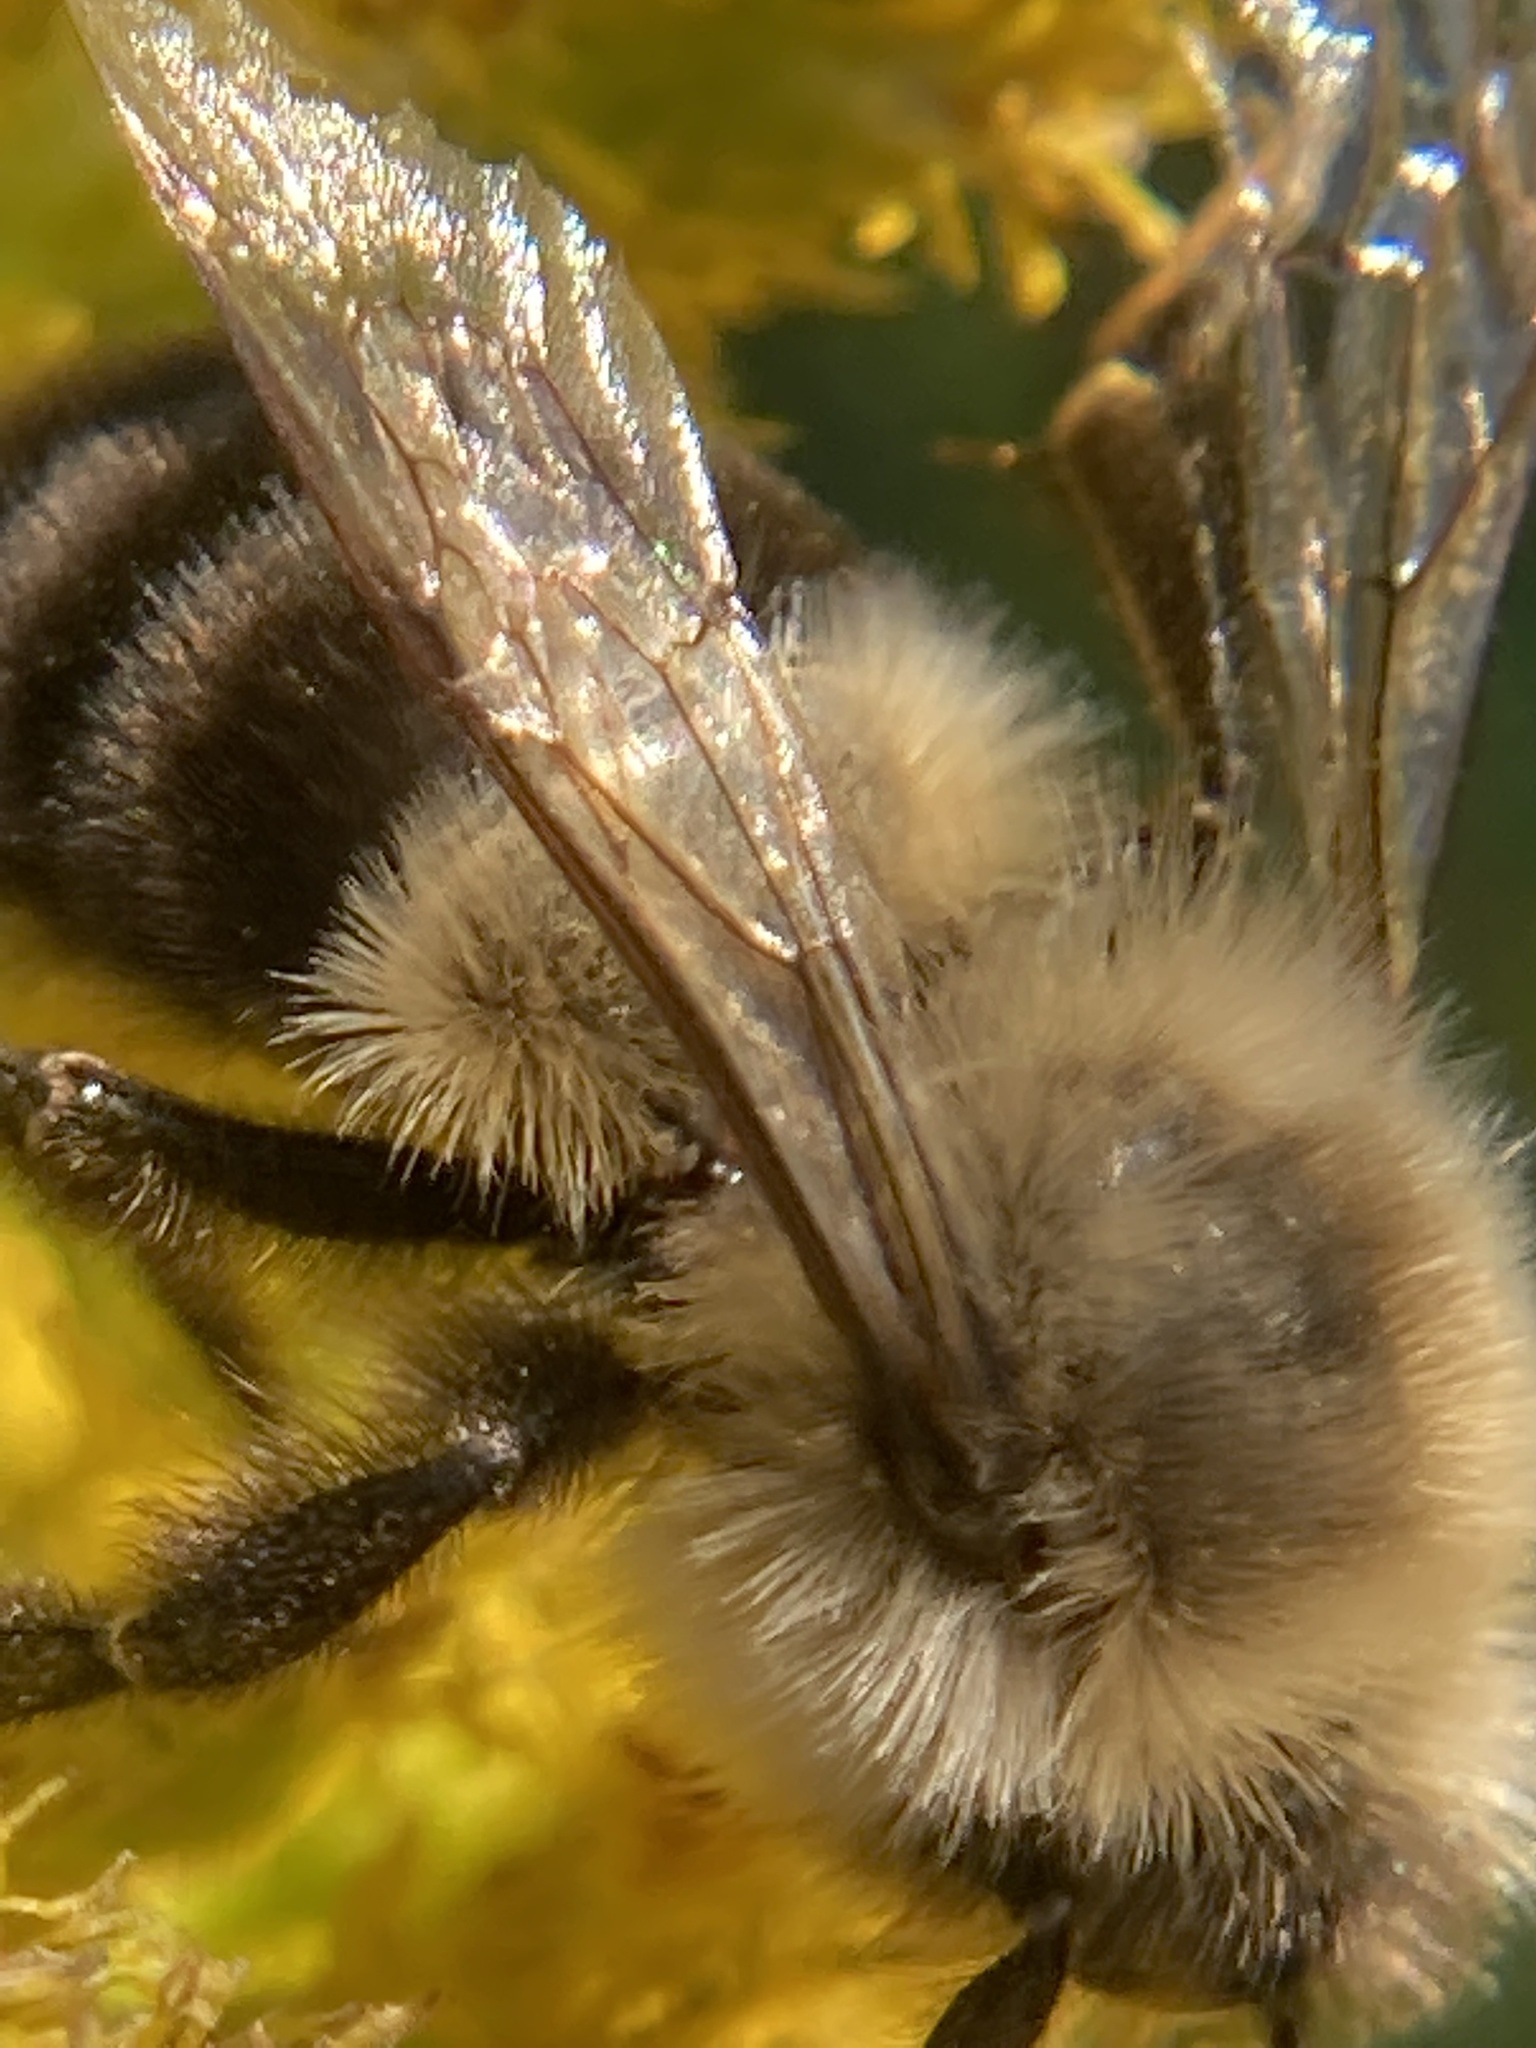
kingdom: Animalia
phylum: Arthropoda
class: Insecta
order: Hymenoptera
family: Apidae
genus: Bombus
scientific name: Bombus impatiens
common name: Common eastern bumble bee
